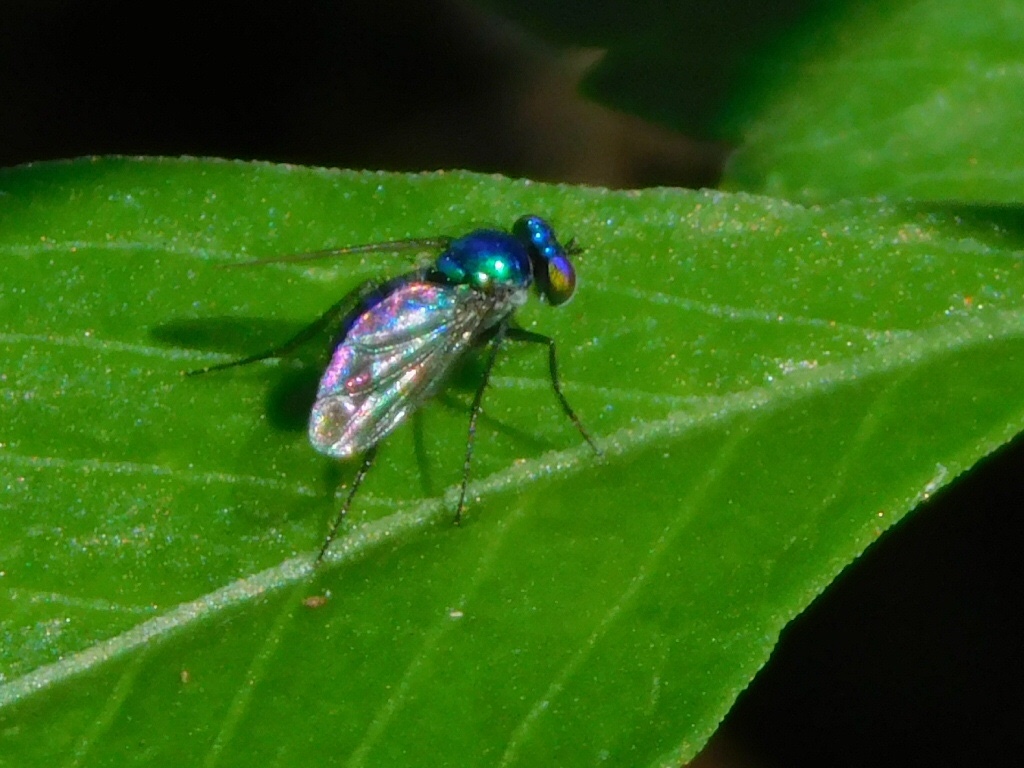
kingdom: Animalia
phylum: Arthropoda
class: Insecta
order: Diptera
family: Dolichopodidae
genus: Condylostylus
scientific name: Condylostylus mundus
